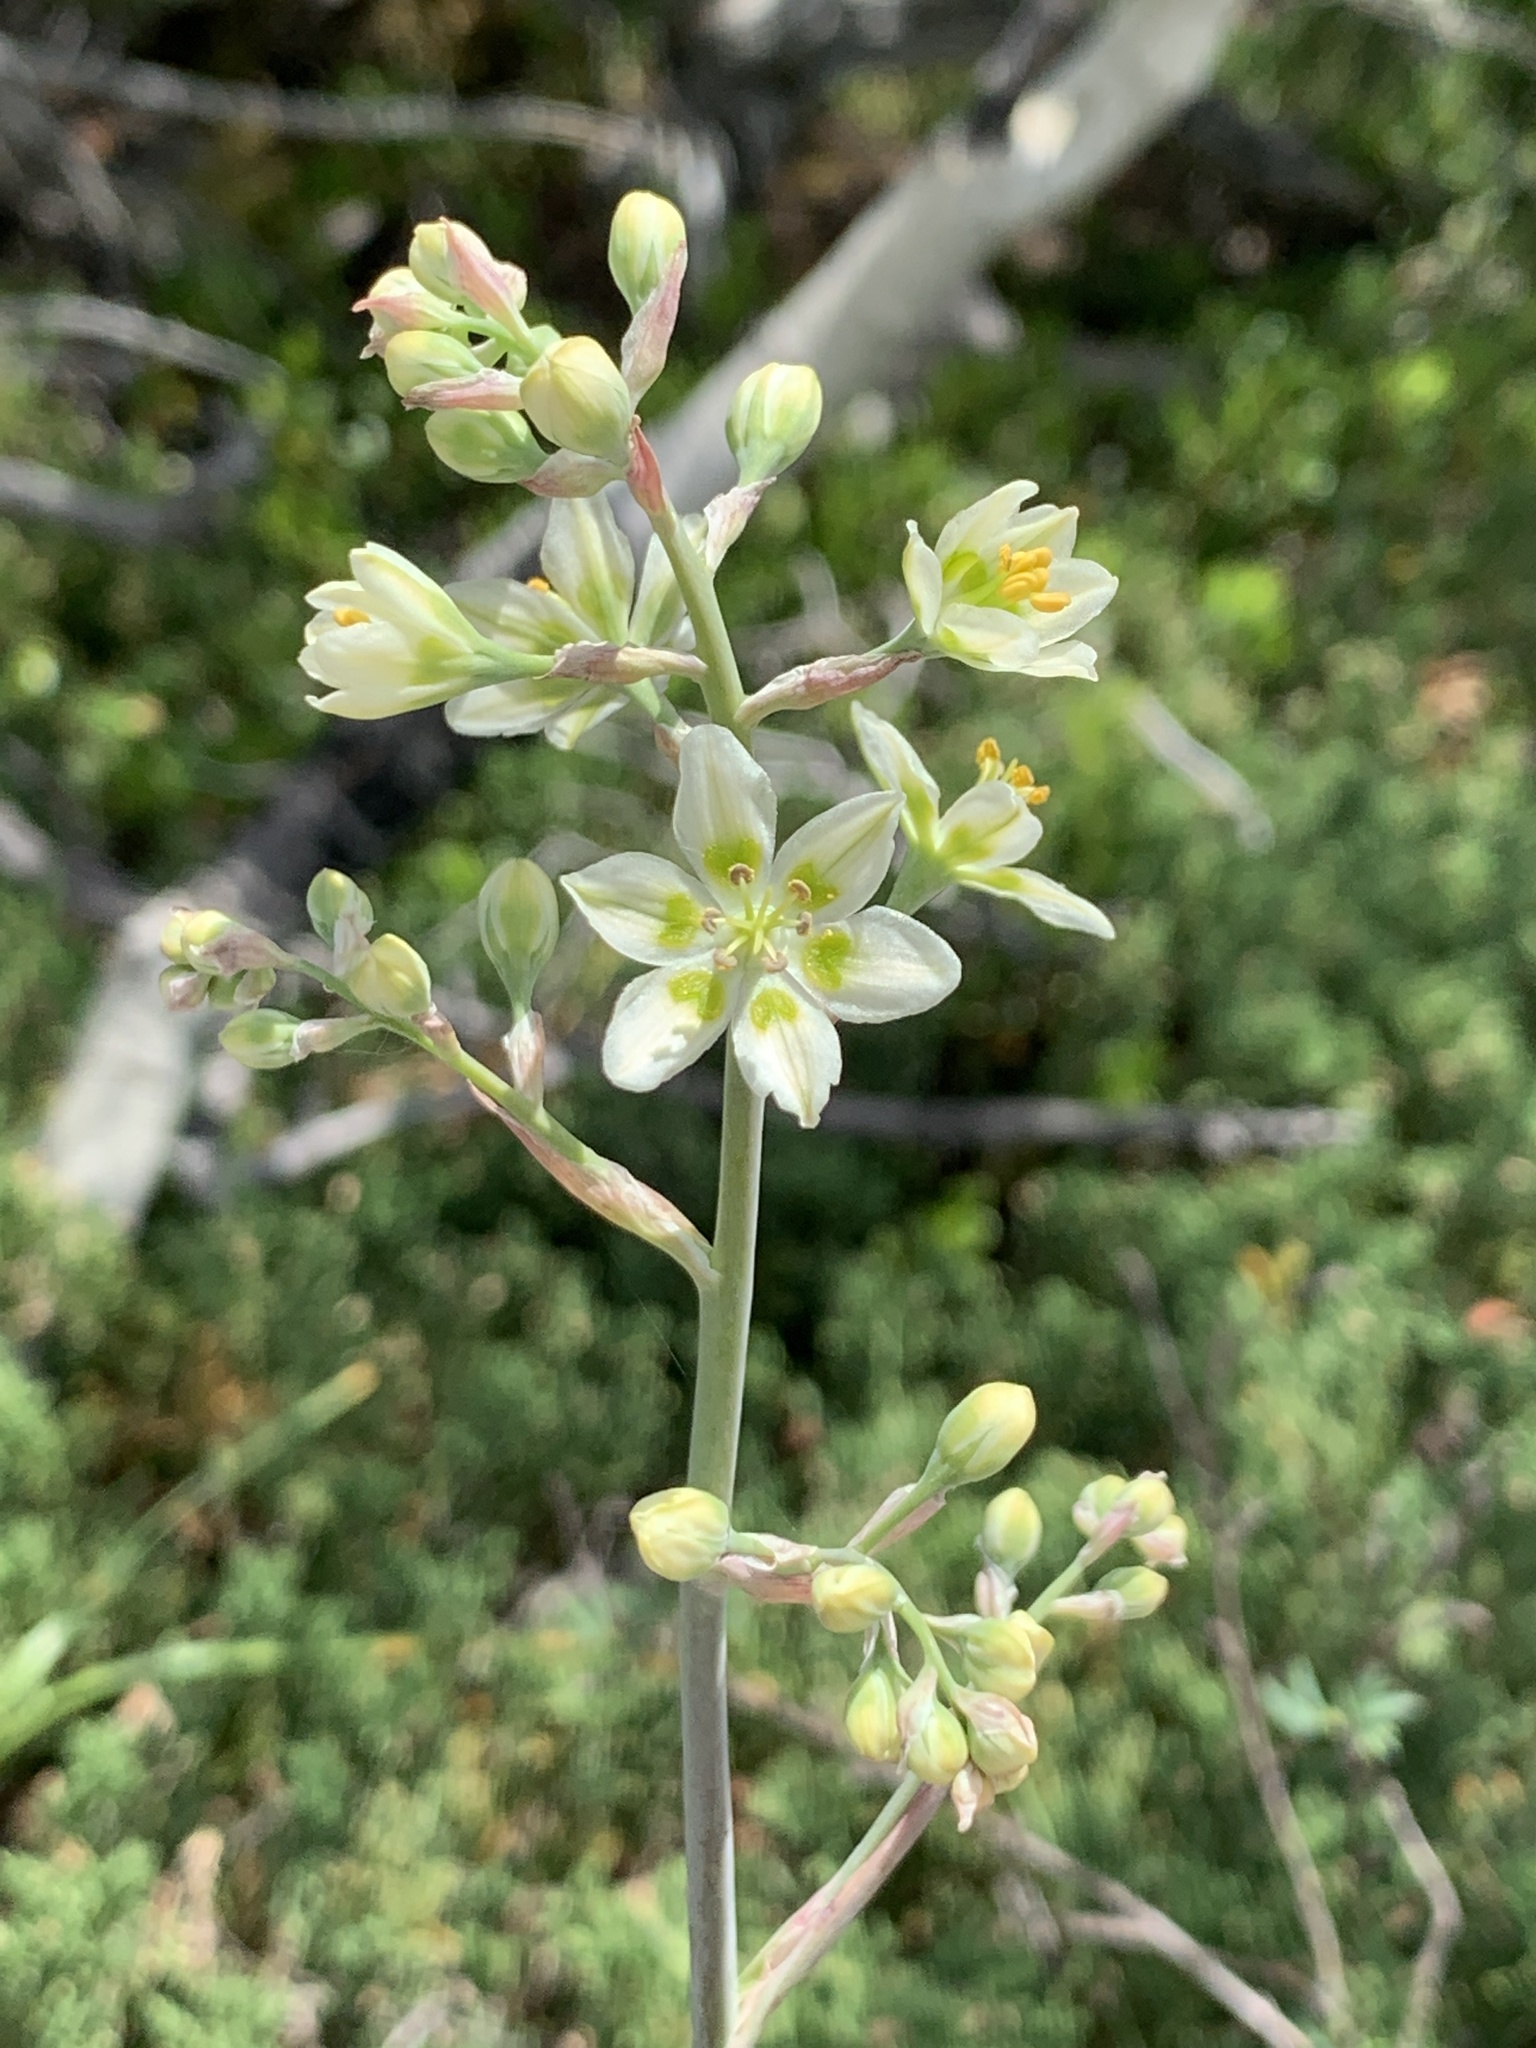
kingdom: Plantae
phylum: Tracheophyta
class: Liliopsida
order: Liliales
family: Melanthiaceae
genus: Anticlea
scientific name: Anticlea elegans
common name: Mountain death camas
